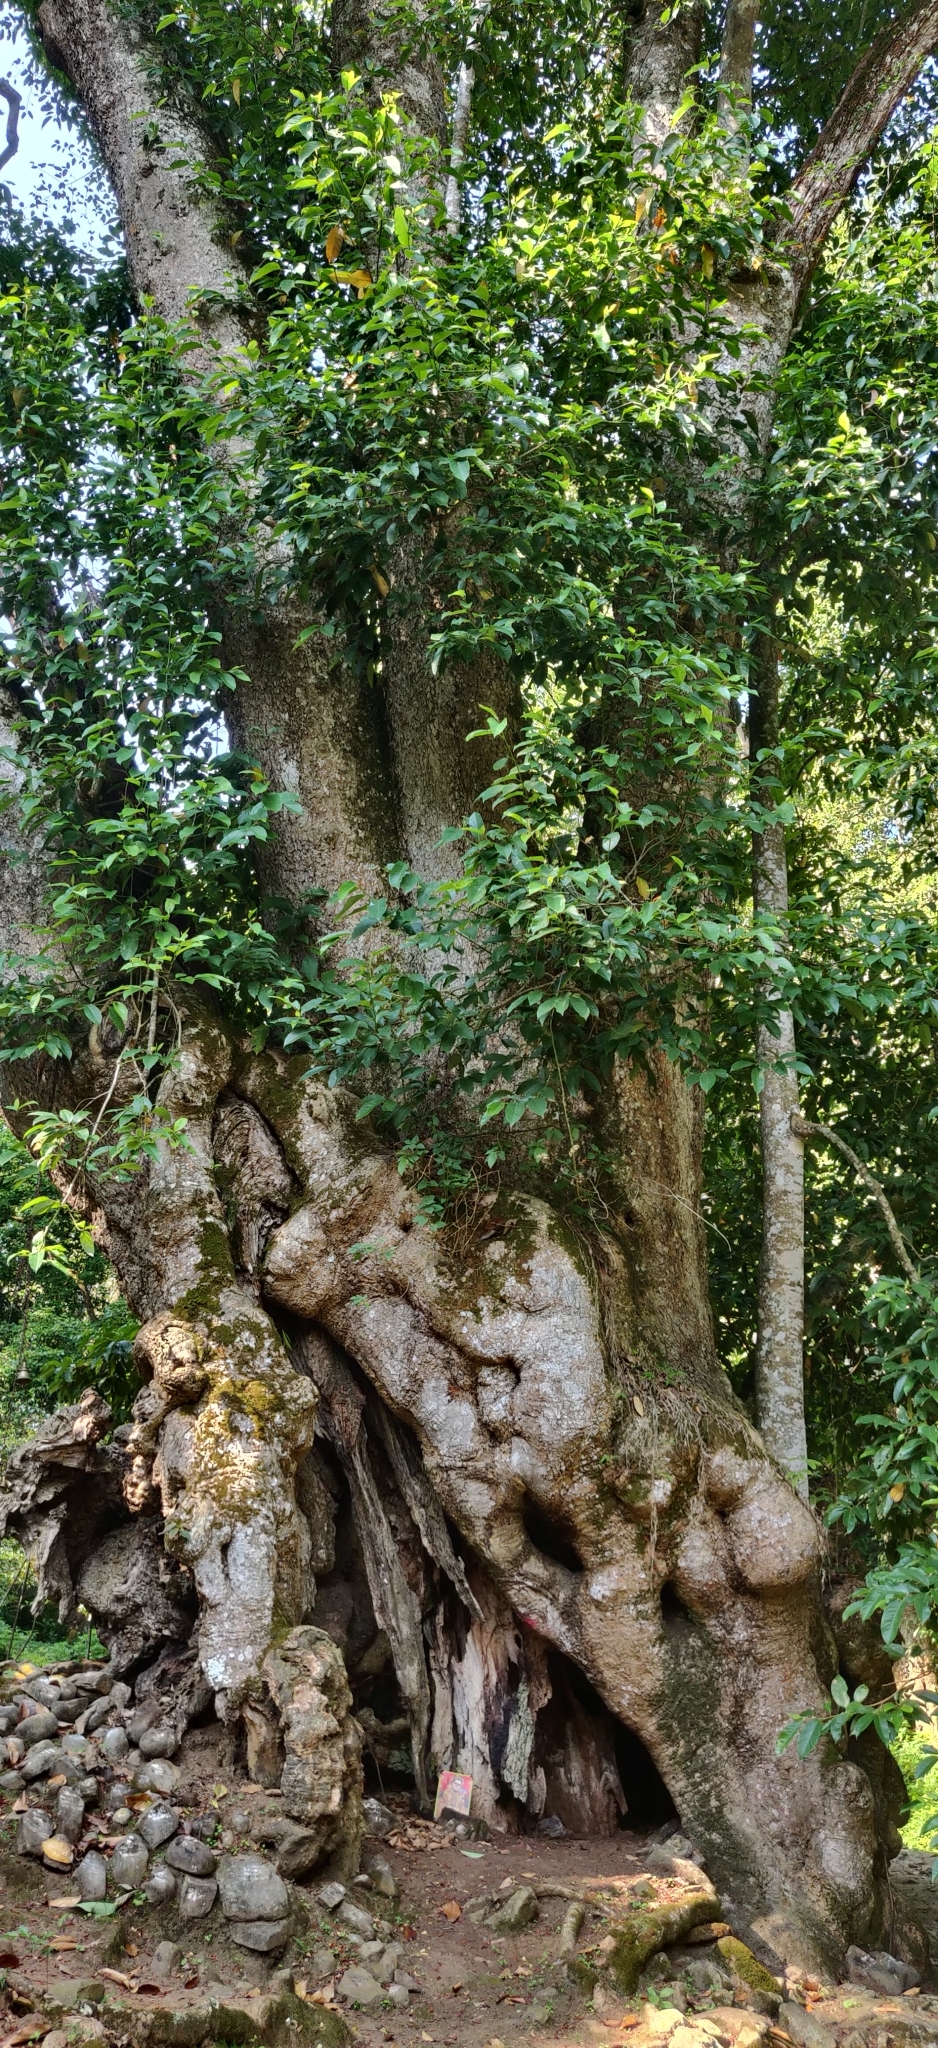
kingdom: Plantae
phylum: Tracheophyta
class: Magnoliopsida
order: Magnoliales
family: Magnoliaceae
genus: Magnolia
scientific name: Magnolia champaca
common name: Champak
